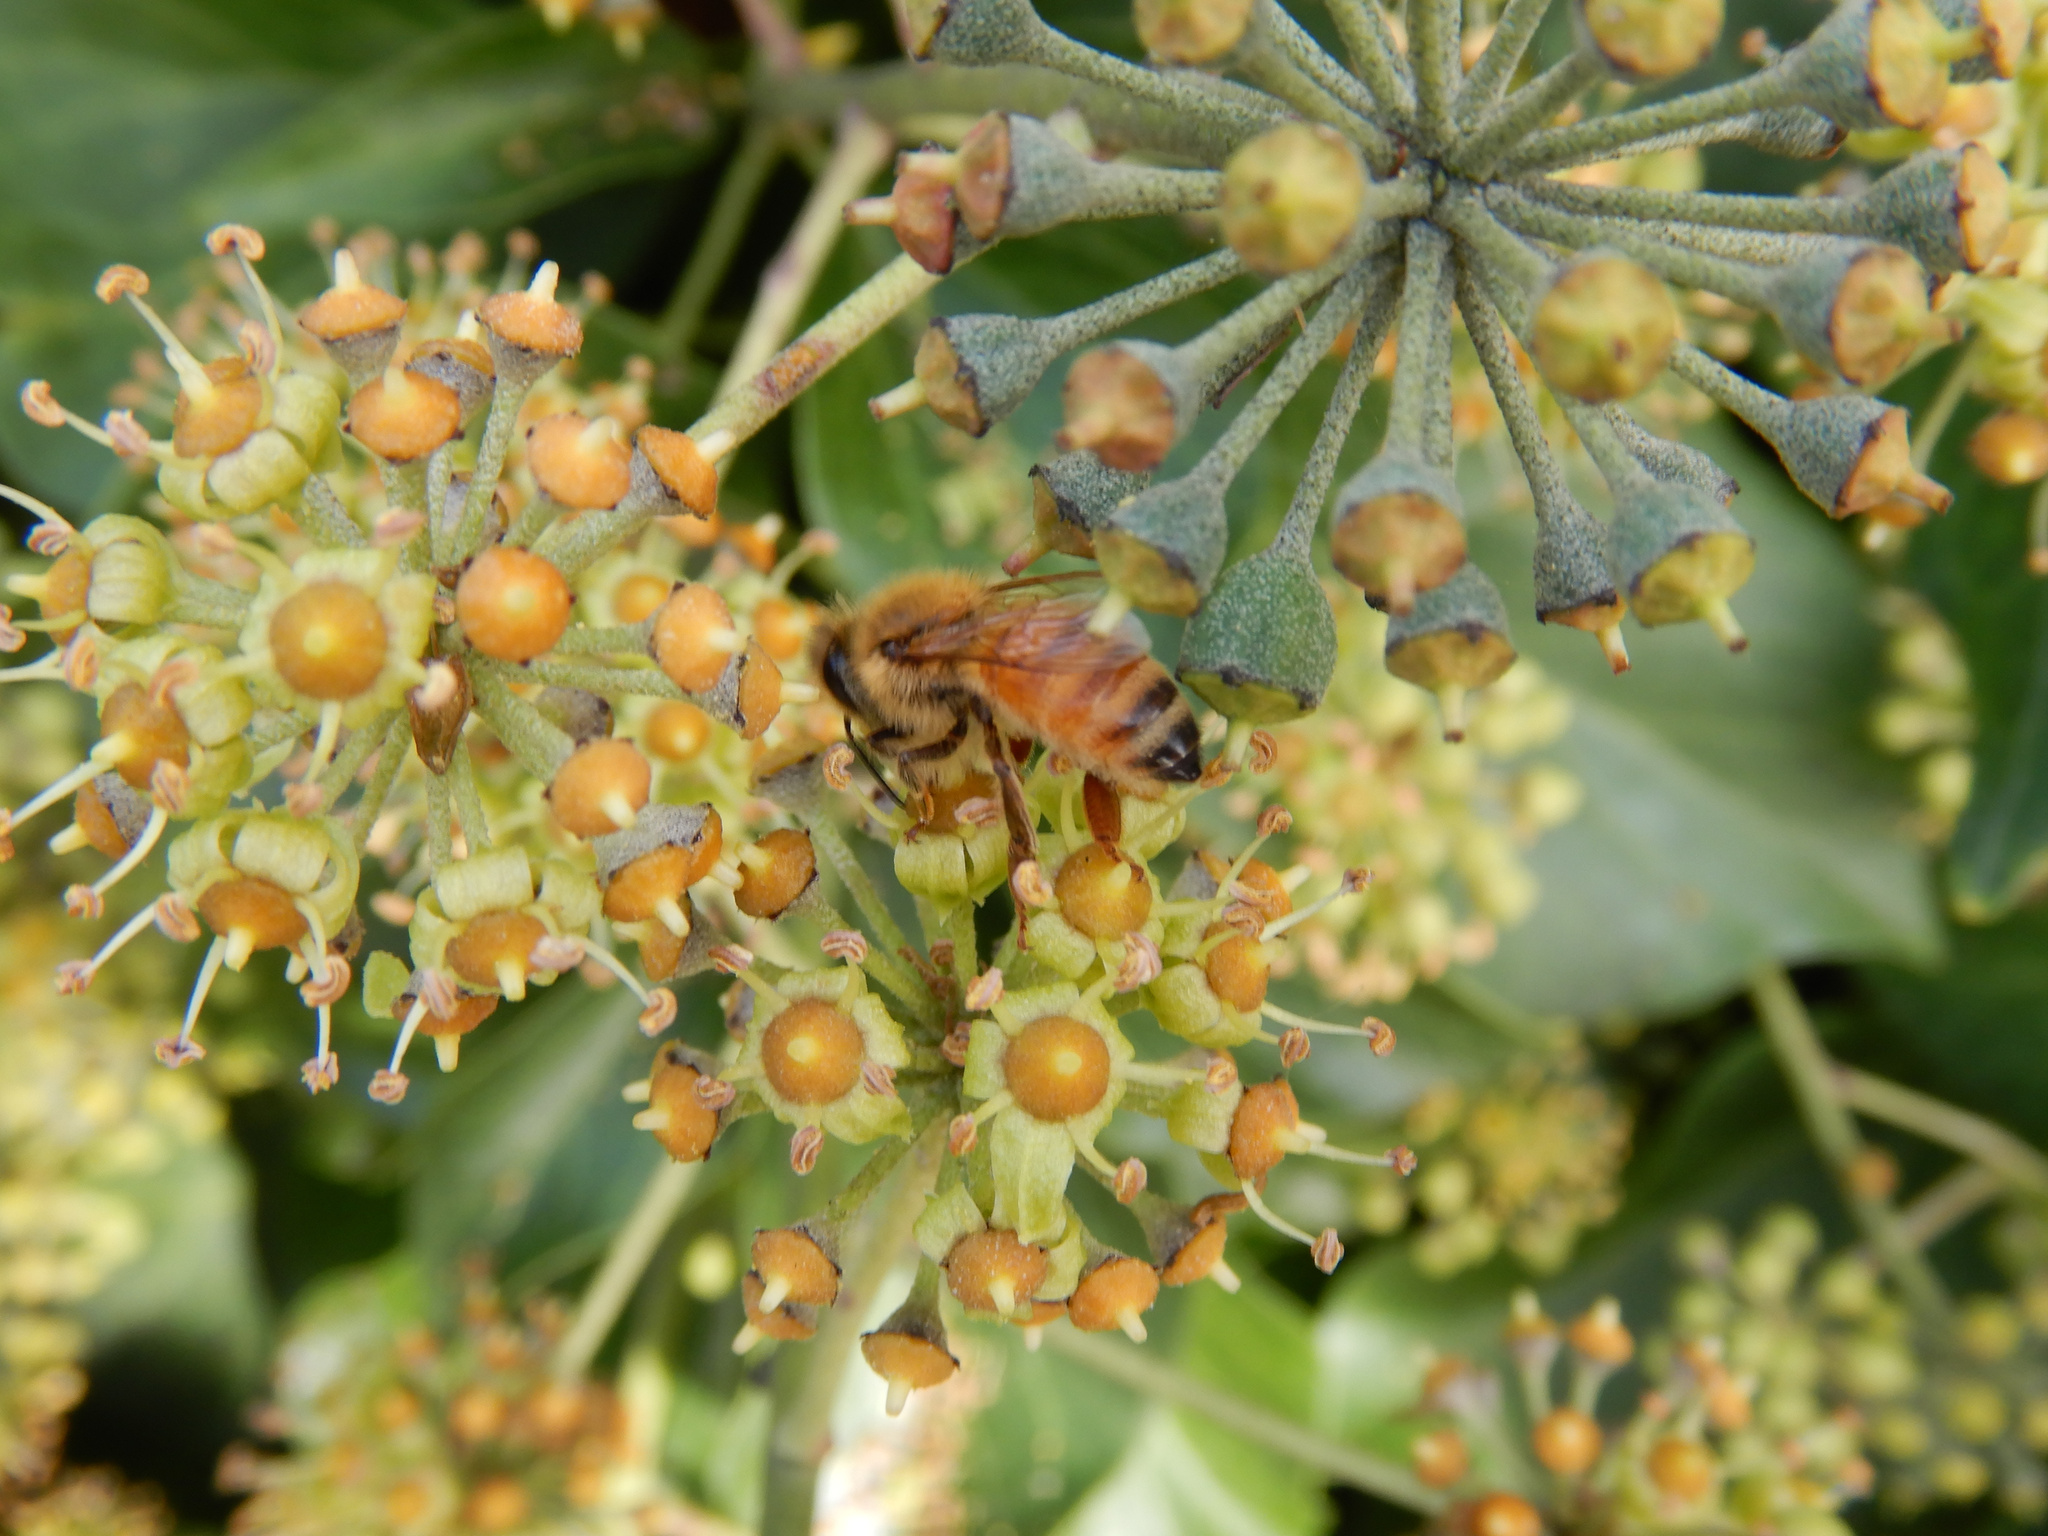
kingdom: Animalia
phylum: Arthropoda
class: Insecta
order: Hymenoptera
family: Apidae
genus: Apis
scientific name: Apis mellifera
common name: Honey bee
